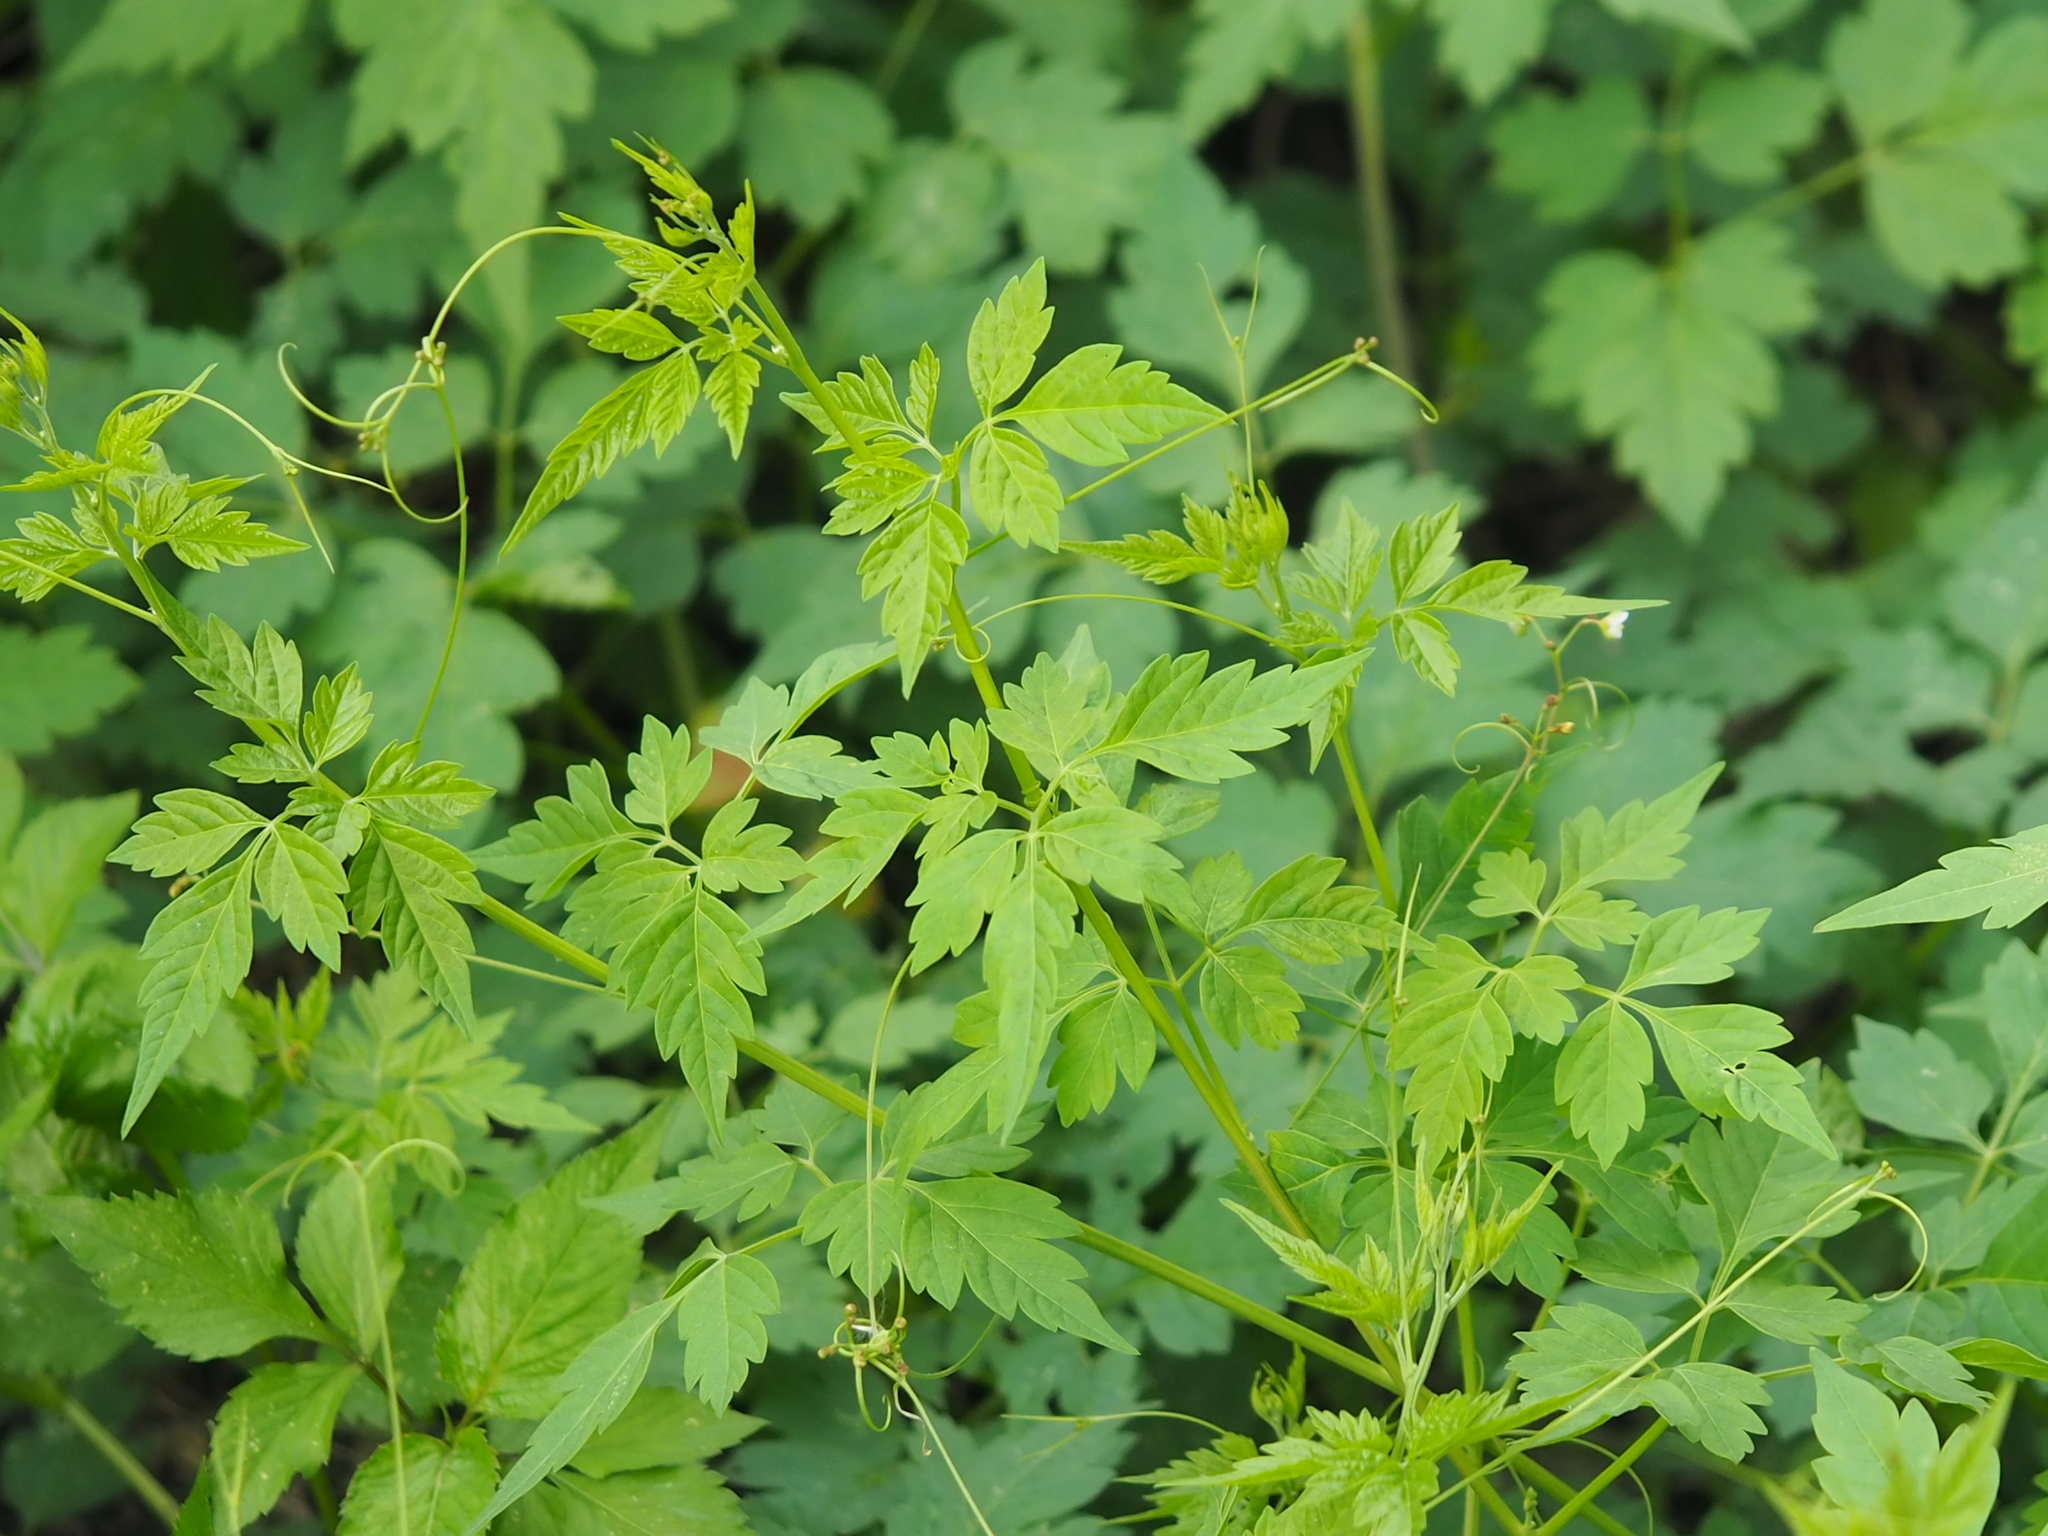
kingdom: Plantae
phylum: Tracheophyta
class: Magnoliopsida
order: Sapindales
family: Sapindaceae
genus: Cardiospermum
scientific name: Cardiospermum halicacabum
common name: Balloon vine
